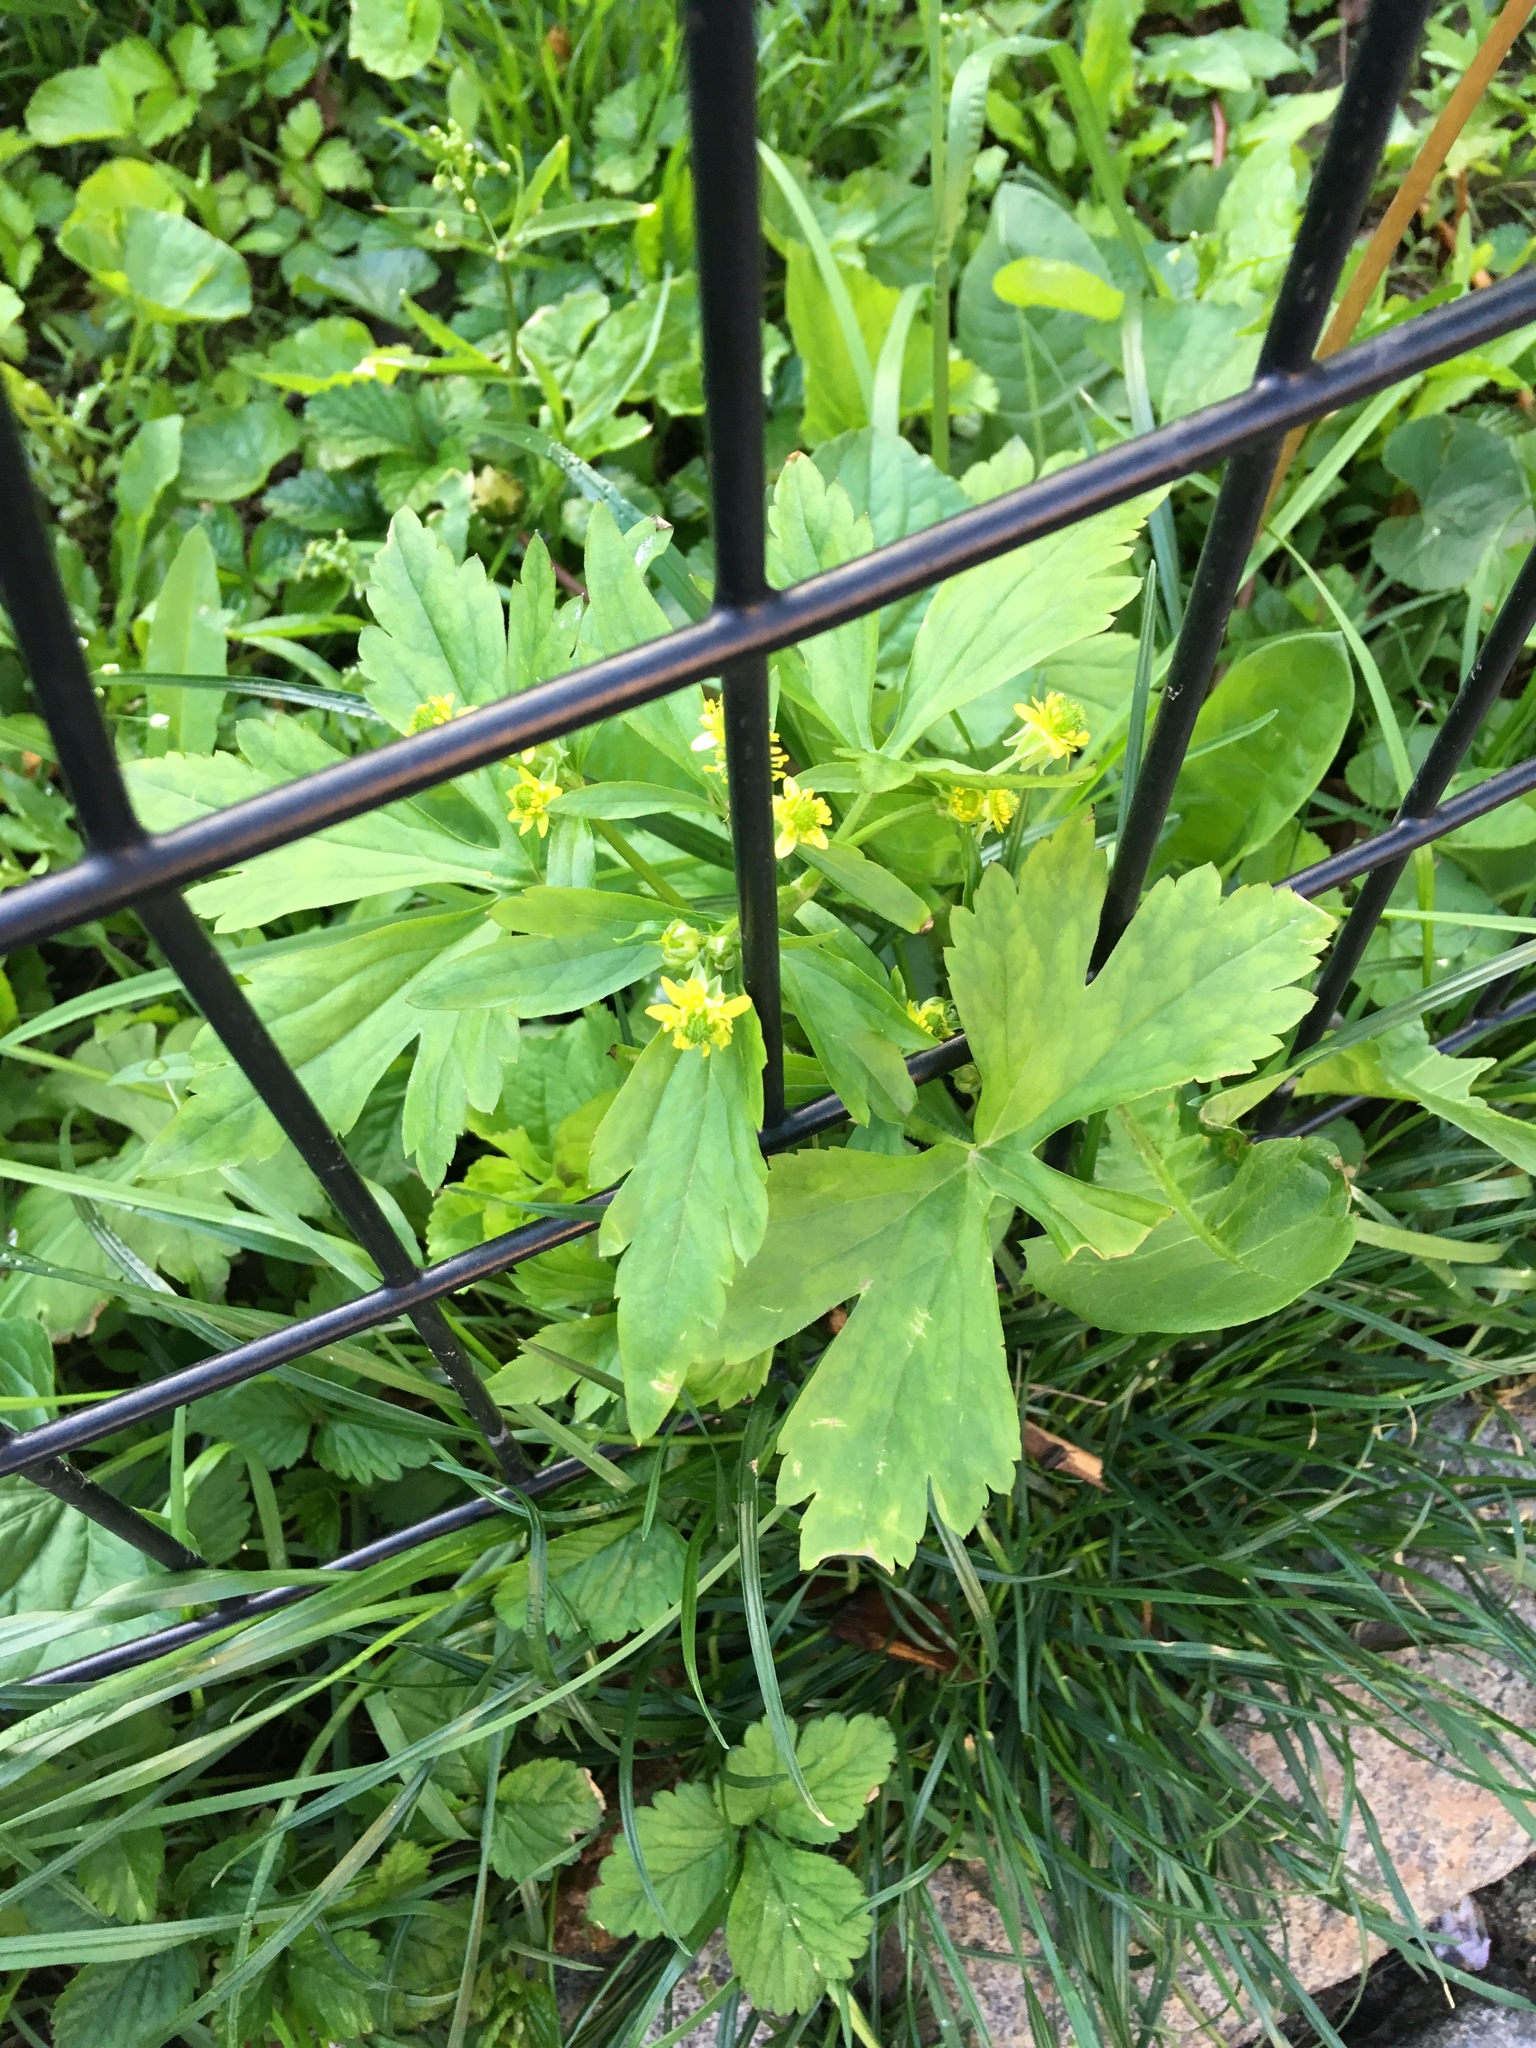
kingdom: Plantae
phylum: Tracheophyta
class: Magnoliopsida
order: Ranunculales
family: Ranunculaceae
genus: Ranunculus
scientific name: Ranunculus recurvatus
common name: Blisterwort
